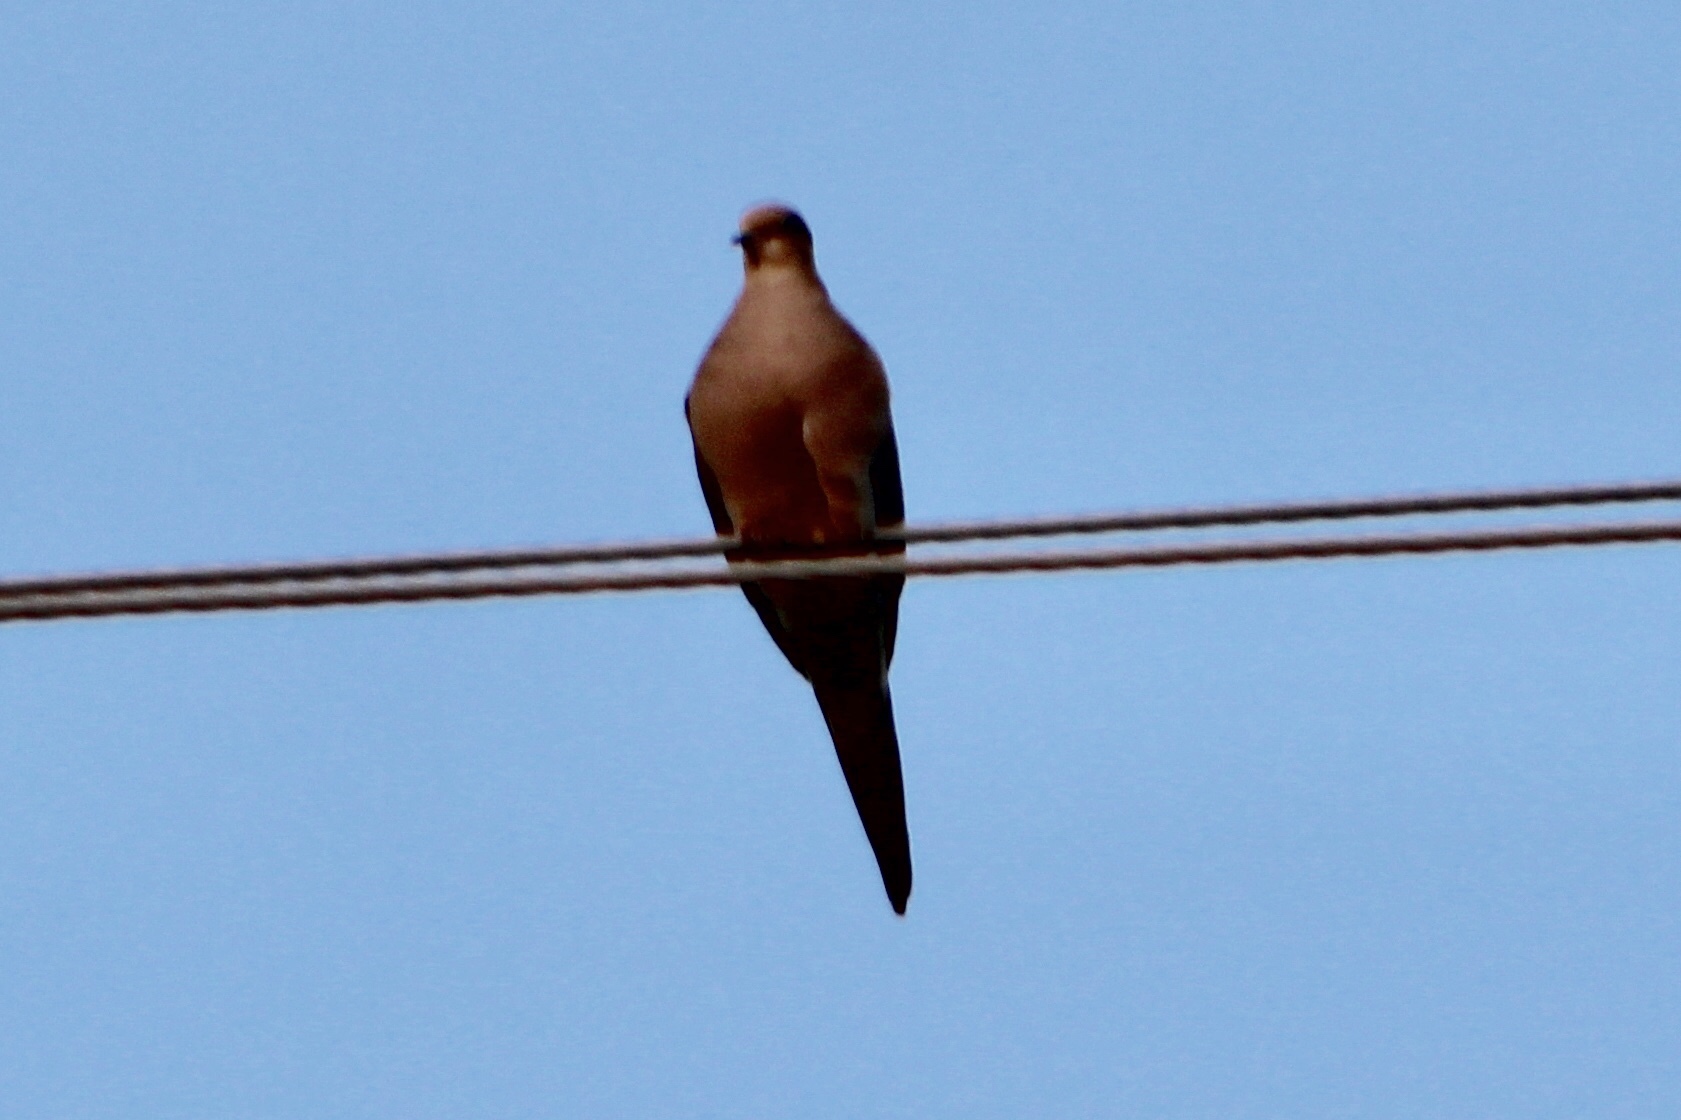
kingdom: Animalia
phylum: Chordata
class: Aves
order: Columbiformes
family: Columbidae
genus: Zenaida
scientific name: Zenaida macroura
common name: Mourning dove
